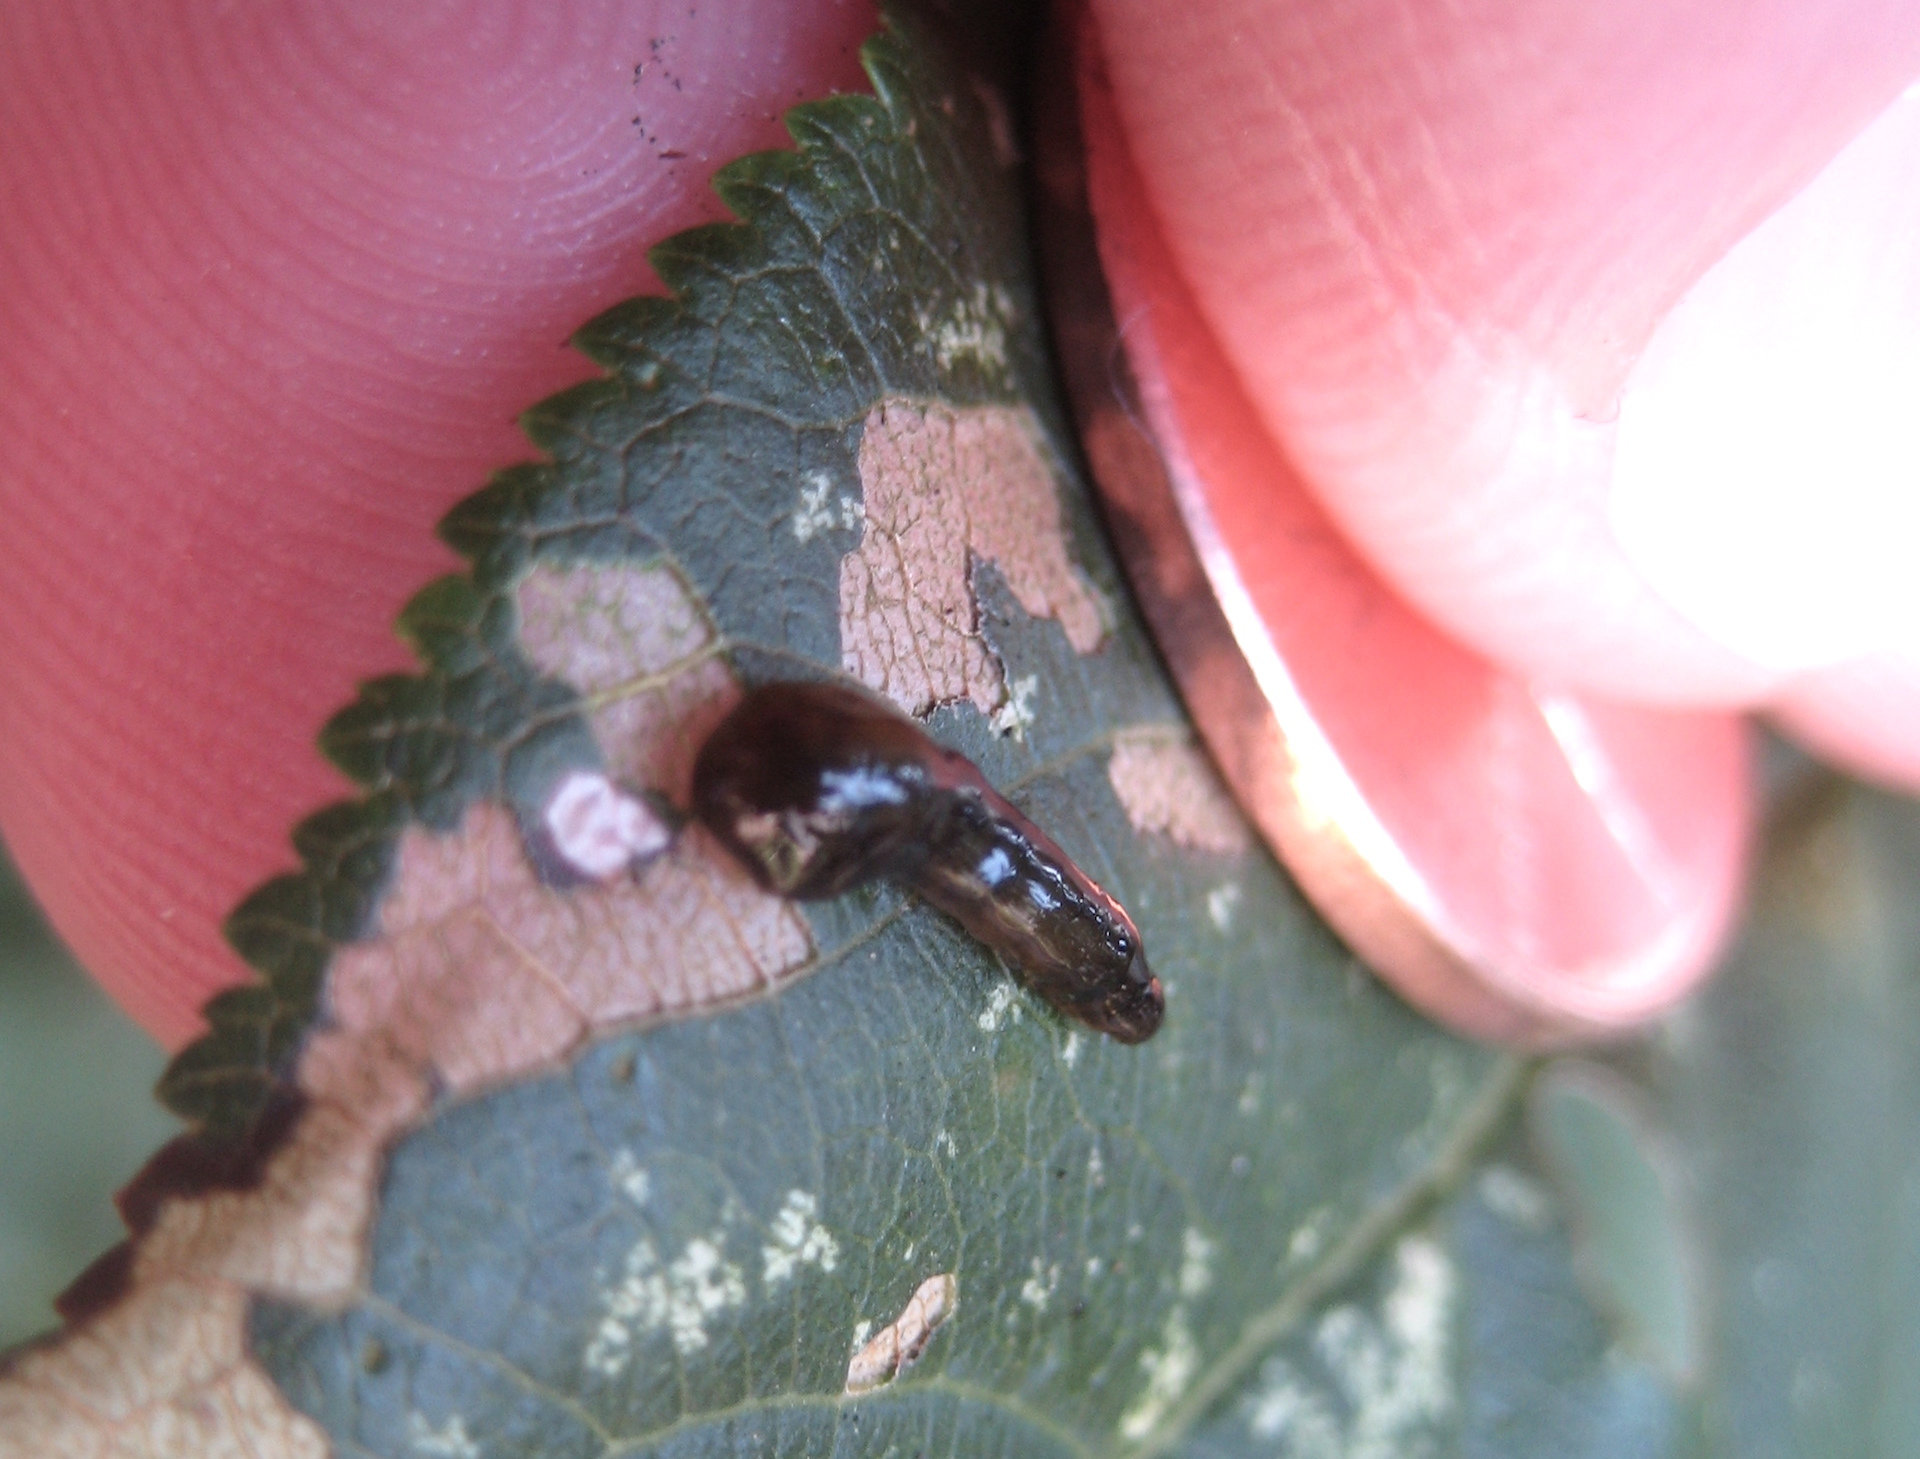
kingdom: Animalia
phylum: Arthropoda
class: Insecta
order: Hymenoptera
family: Tenthredinidae
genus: Caliroa
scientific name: Caliroa cerasi
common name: Pear sawfly
